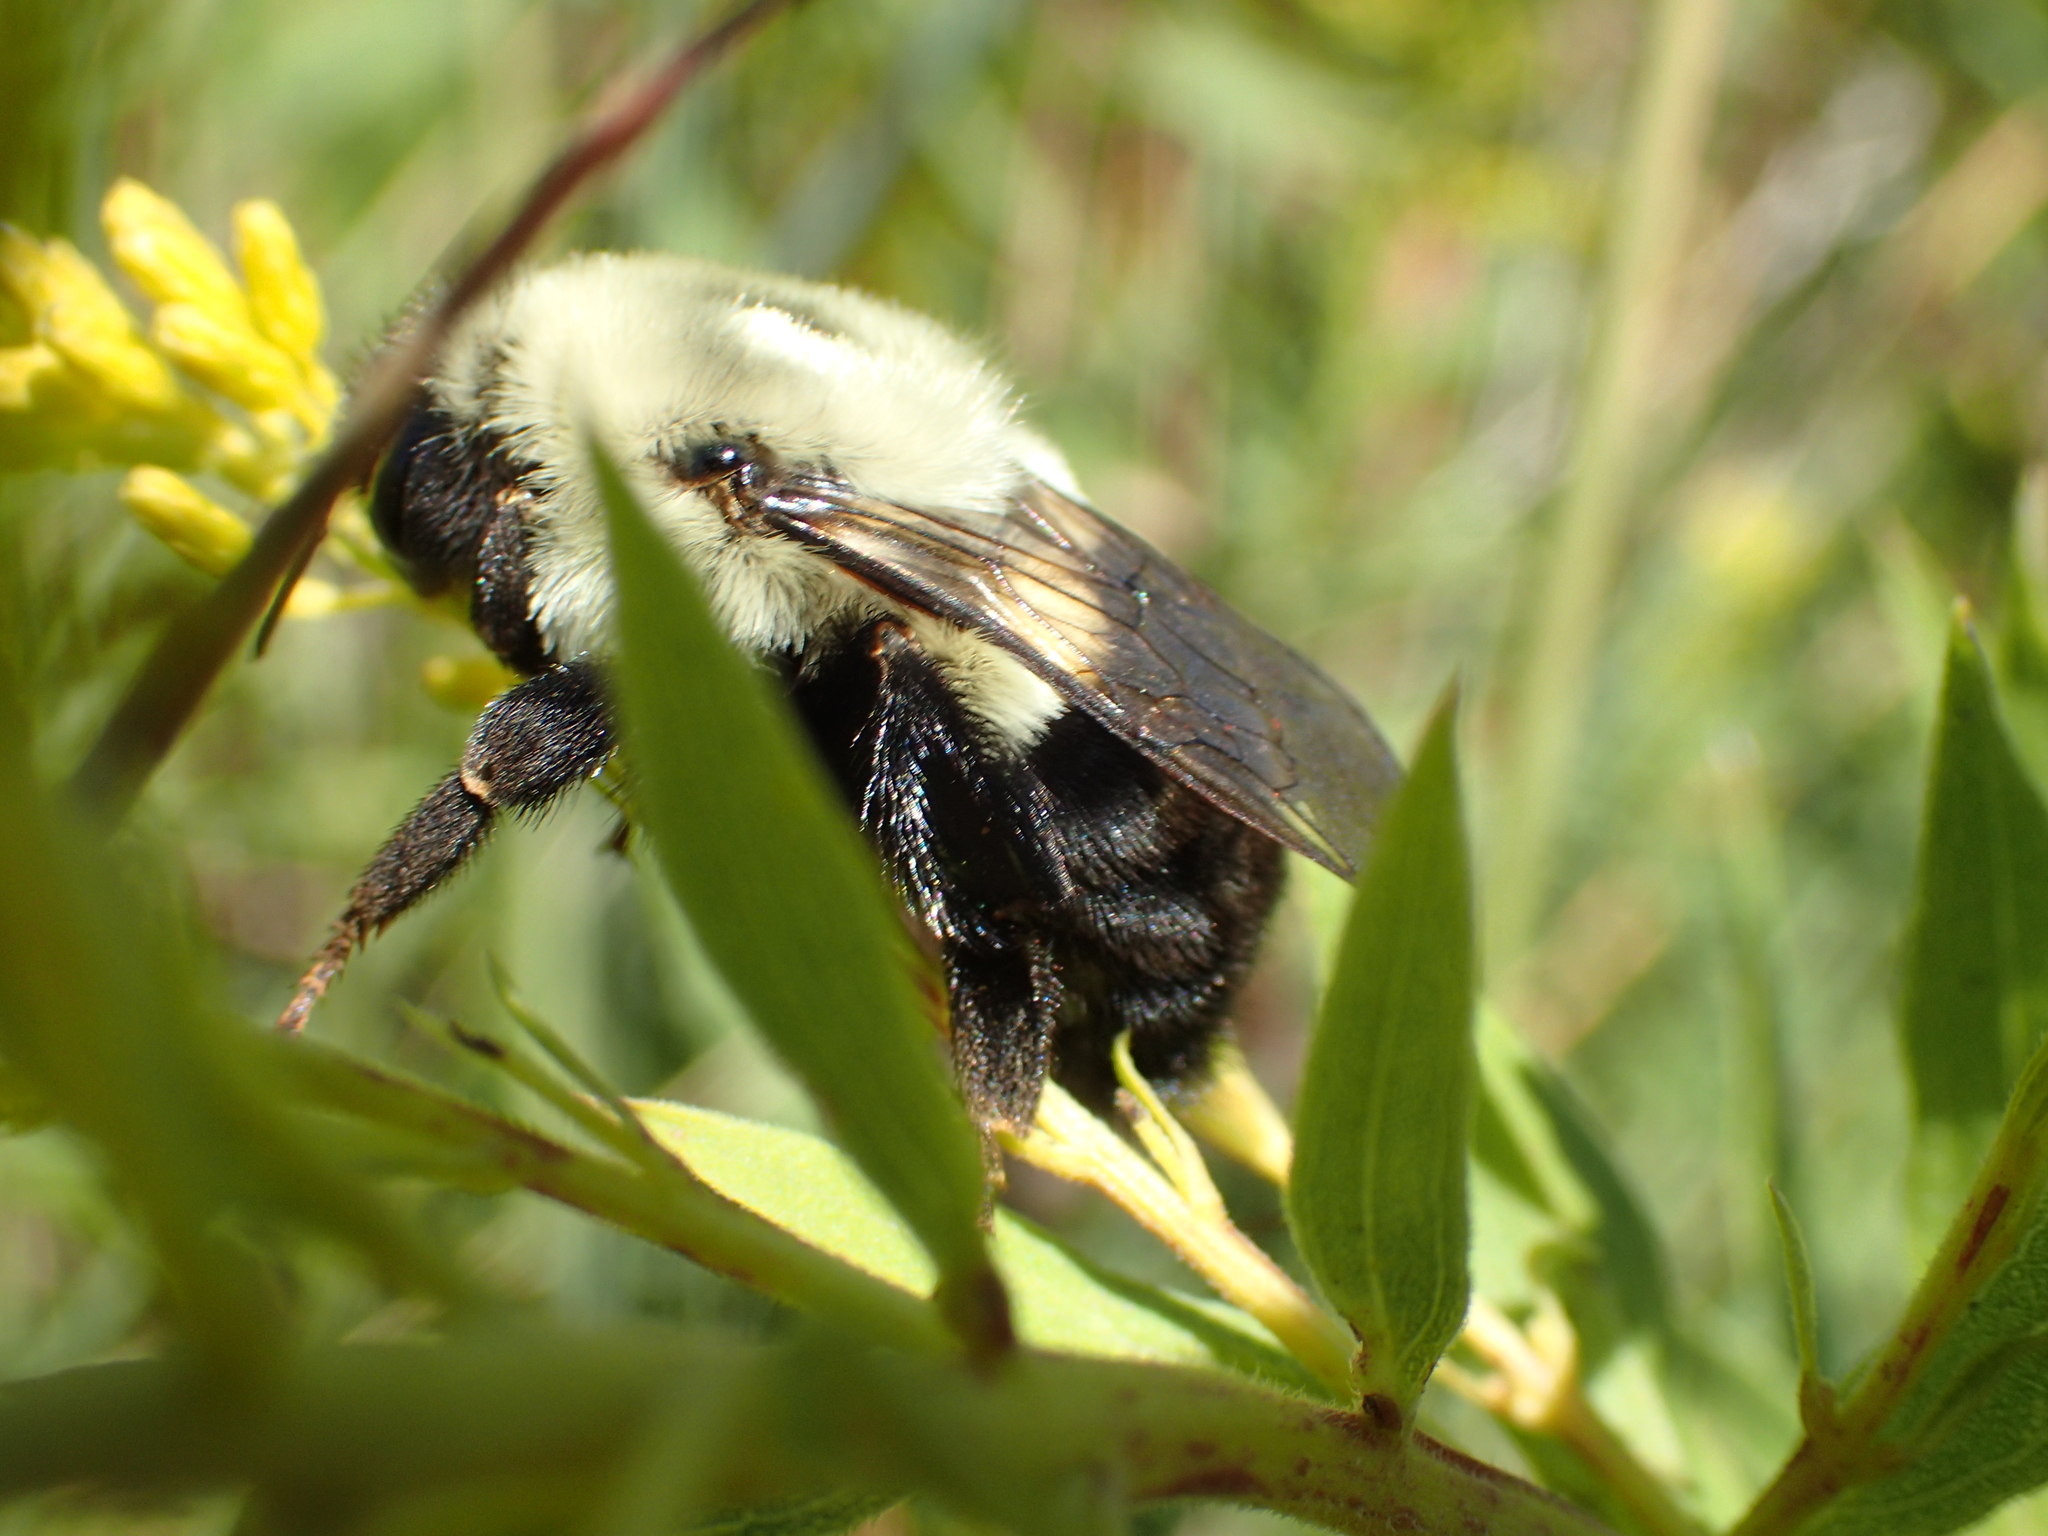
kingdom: Animalia
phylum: Arthropoda
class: Insecta
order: Hymenoptera
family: Apidae
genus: Bombus
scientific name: Bombus impatiens
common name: Common eastern bumble bee
